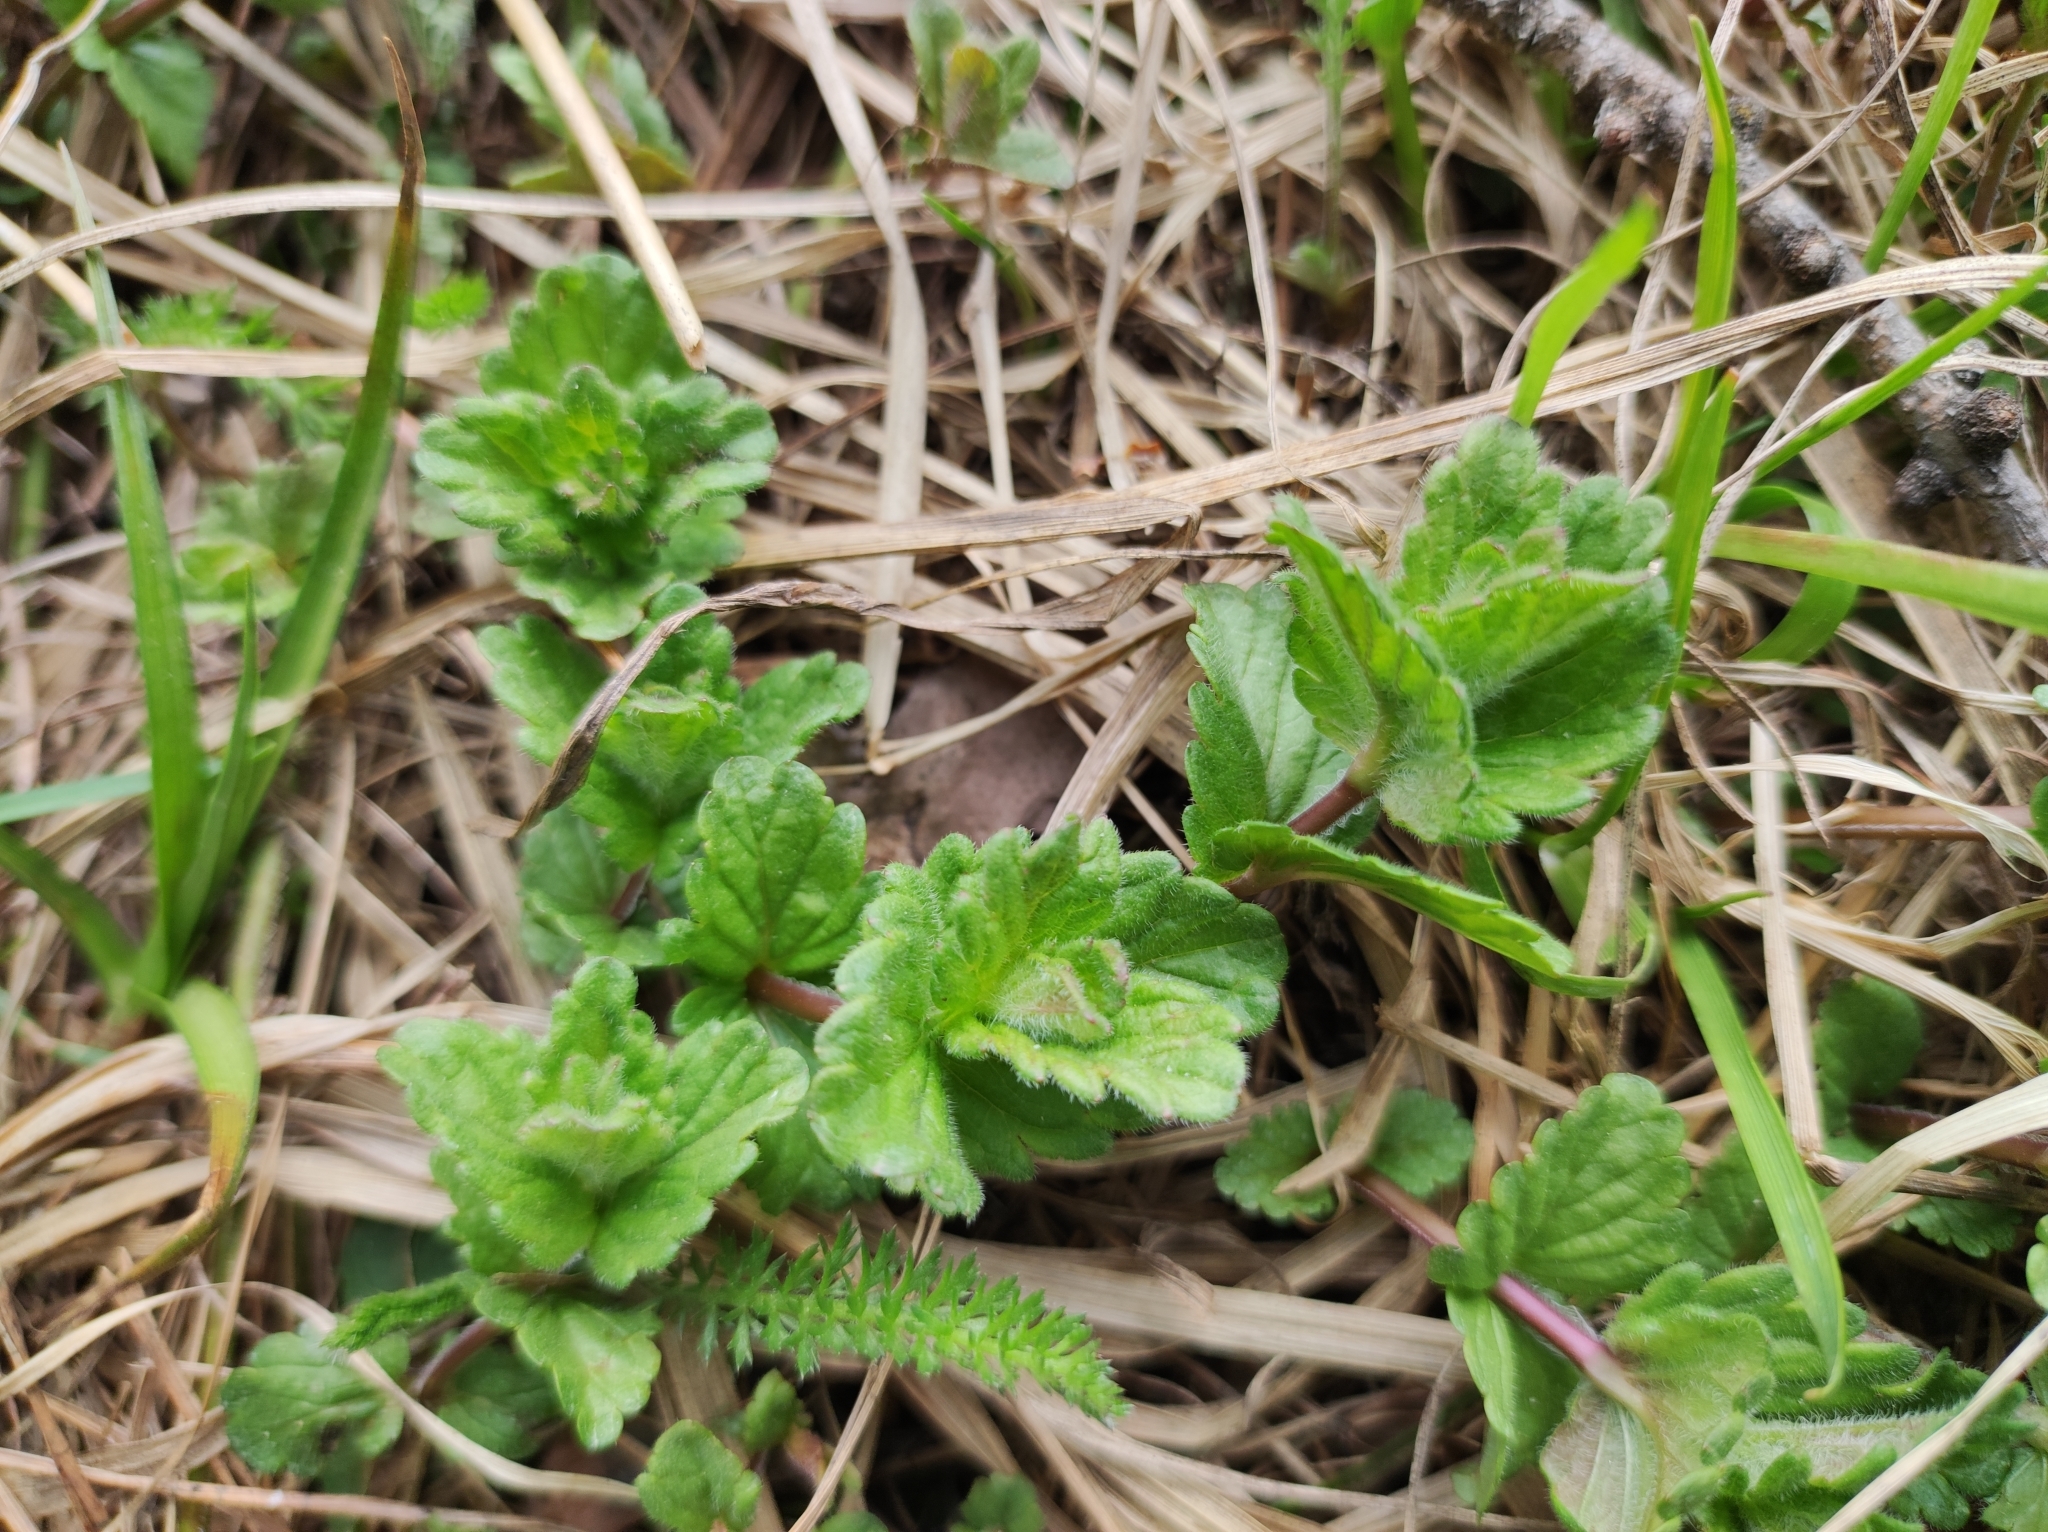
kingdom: Plantae
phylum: Tracheophyta
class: Magnoliopsida
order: Lamiales
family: Plantaginaceae
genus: Veronica
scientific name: Veronica chamaedrys
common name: Germander speedwell
